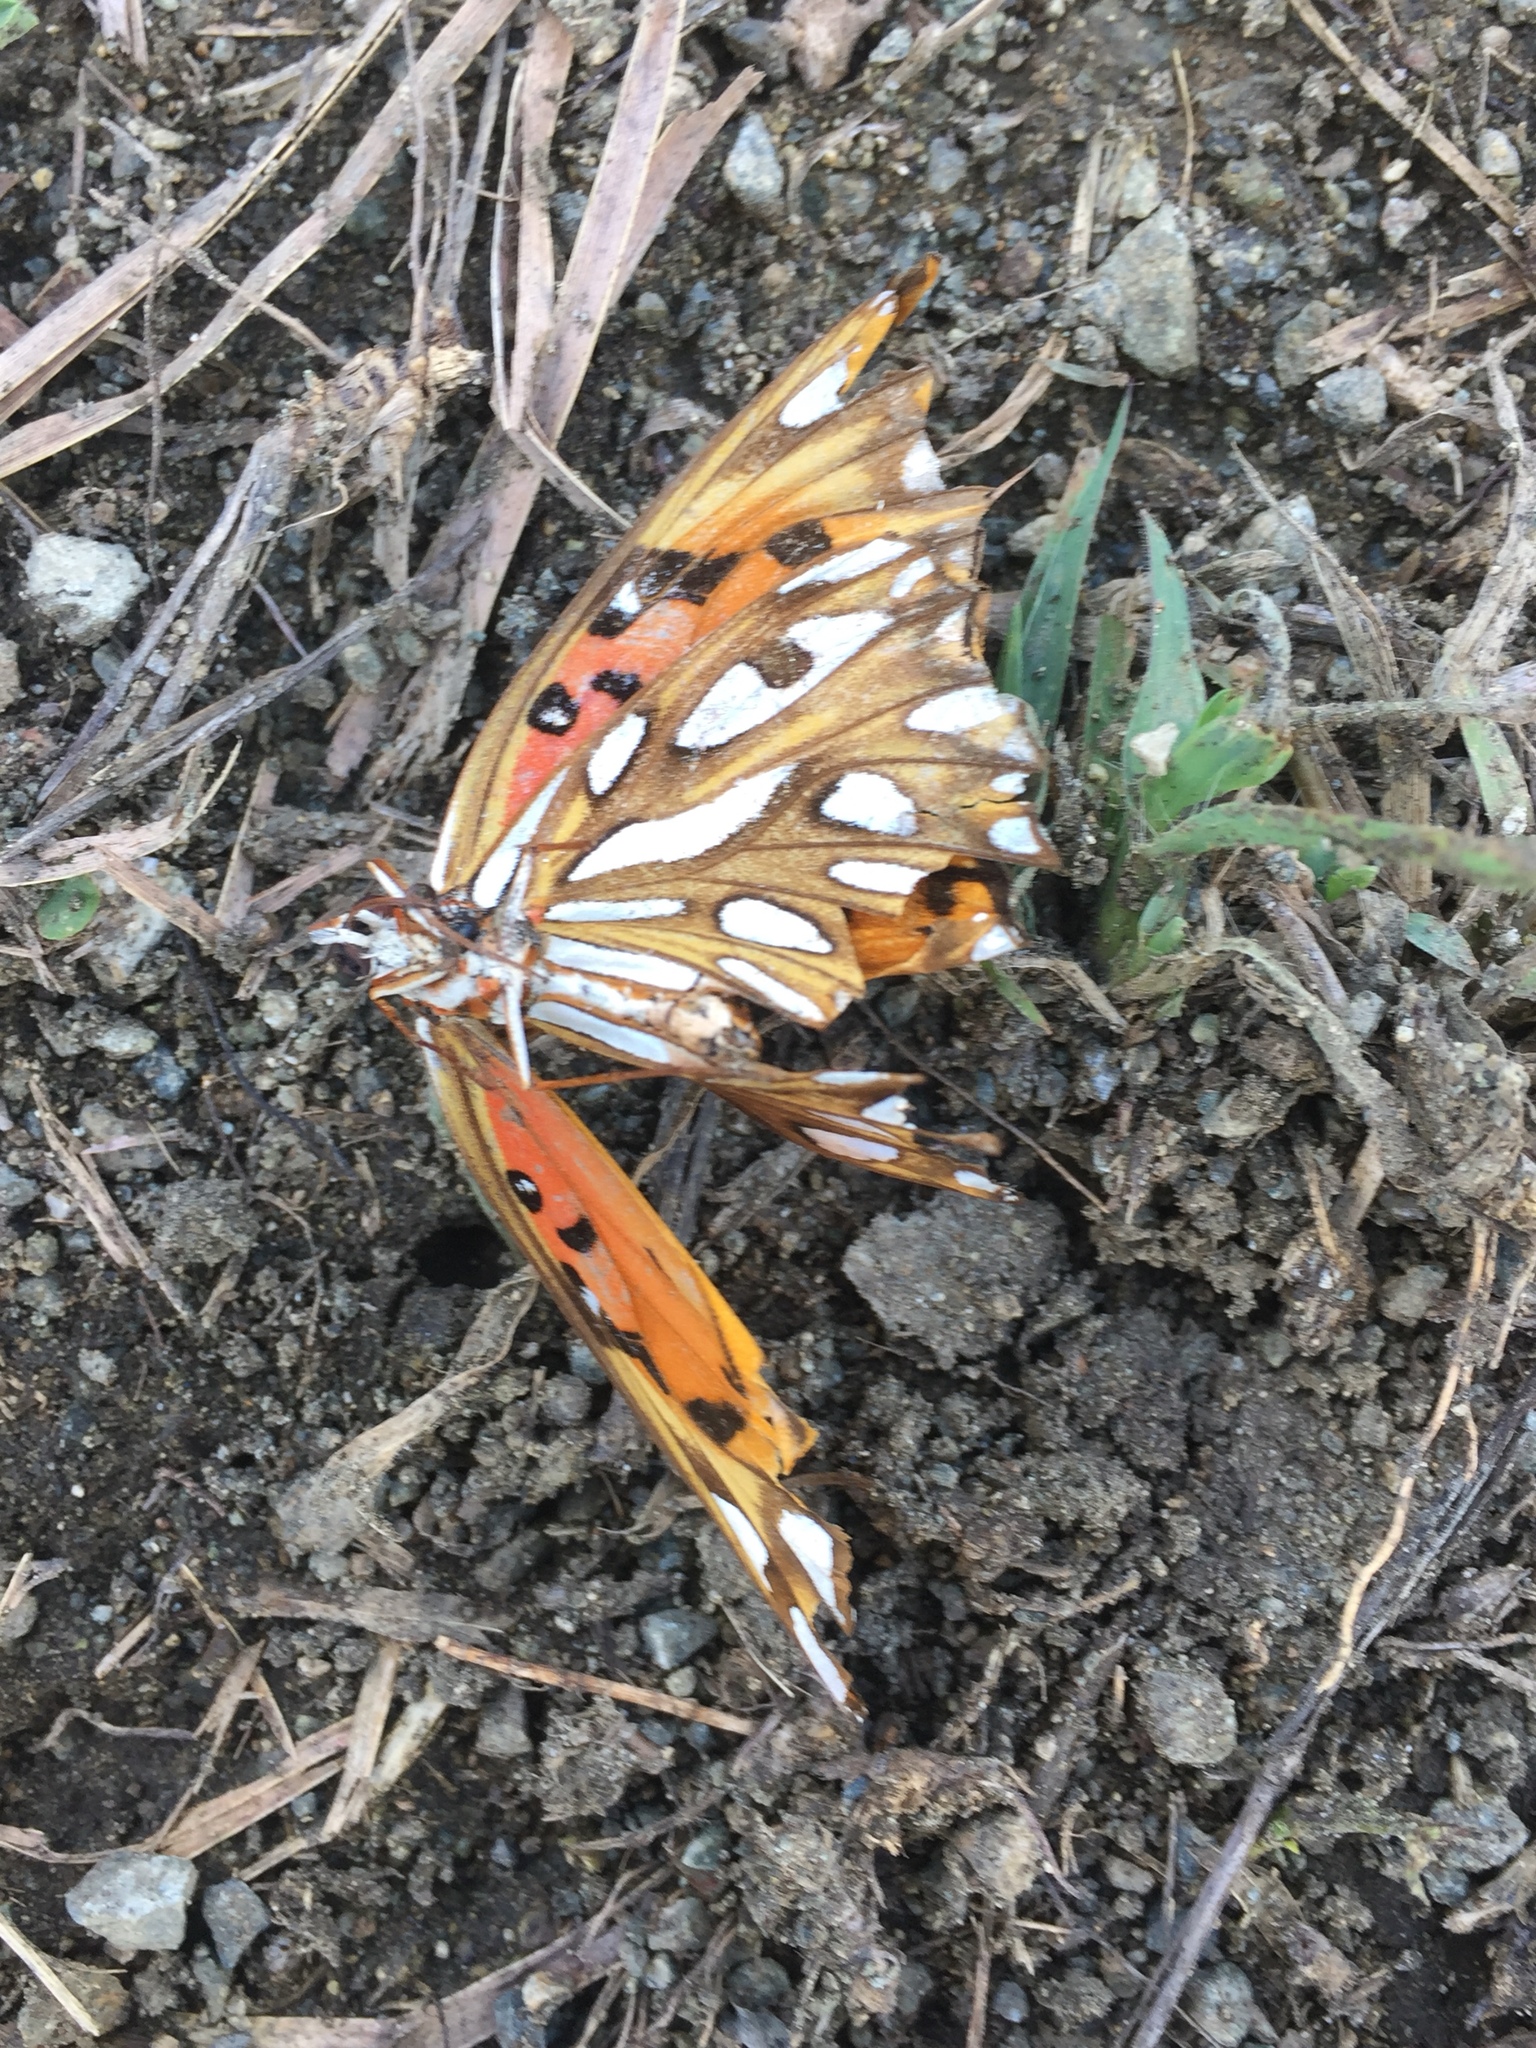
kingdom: Animalia
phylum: Arthropoda
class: Insecta
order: Lepidoptera
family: Nymphalidae
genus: Dione
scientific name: Dione vanillae
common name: Gulf fritillary
